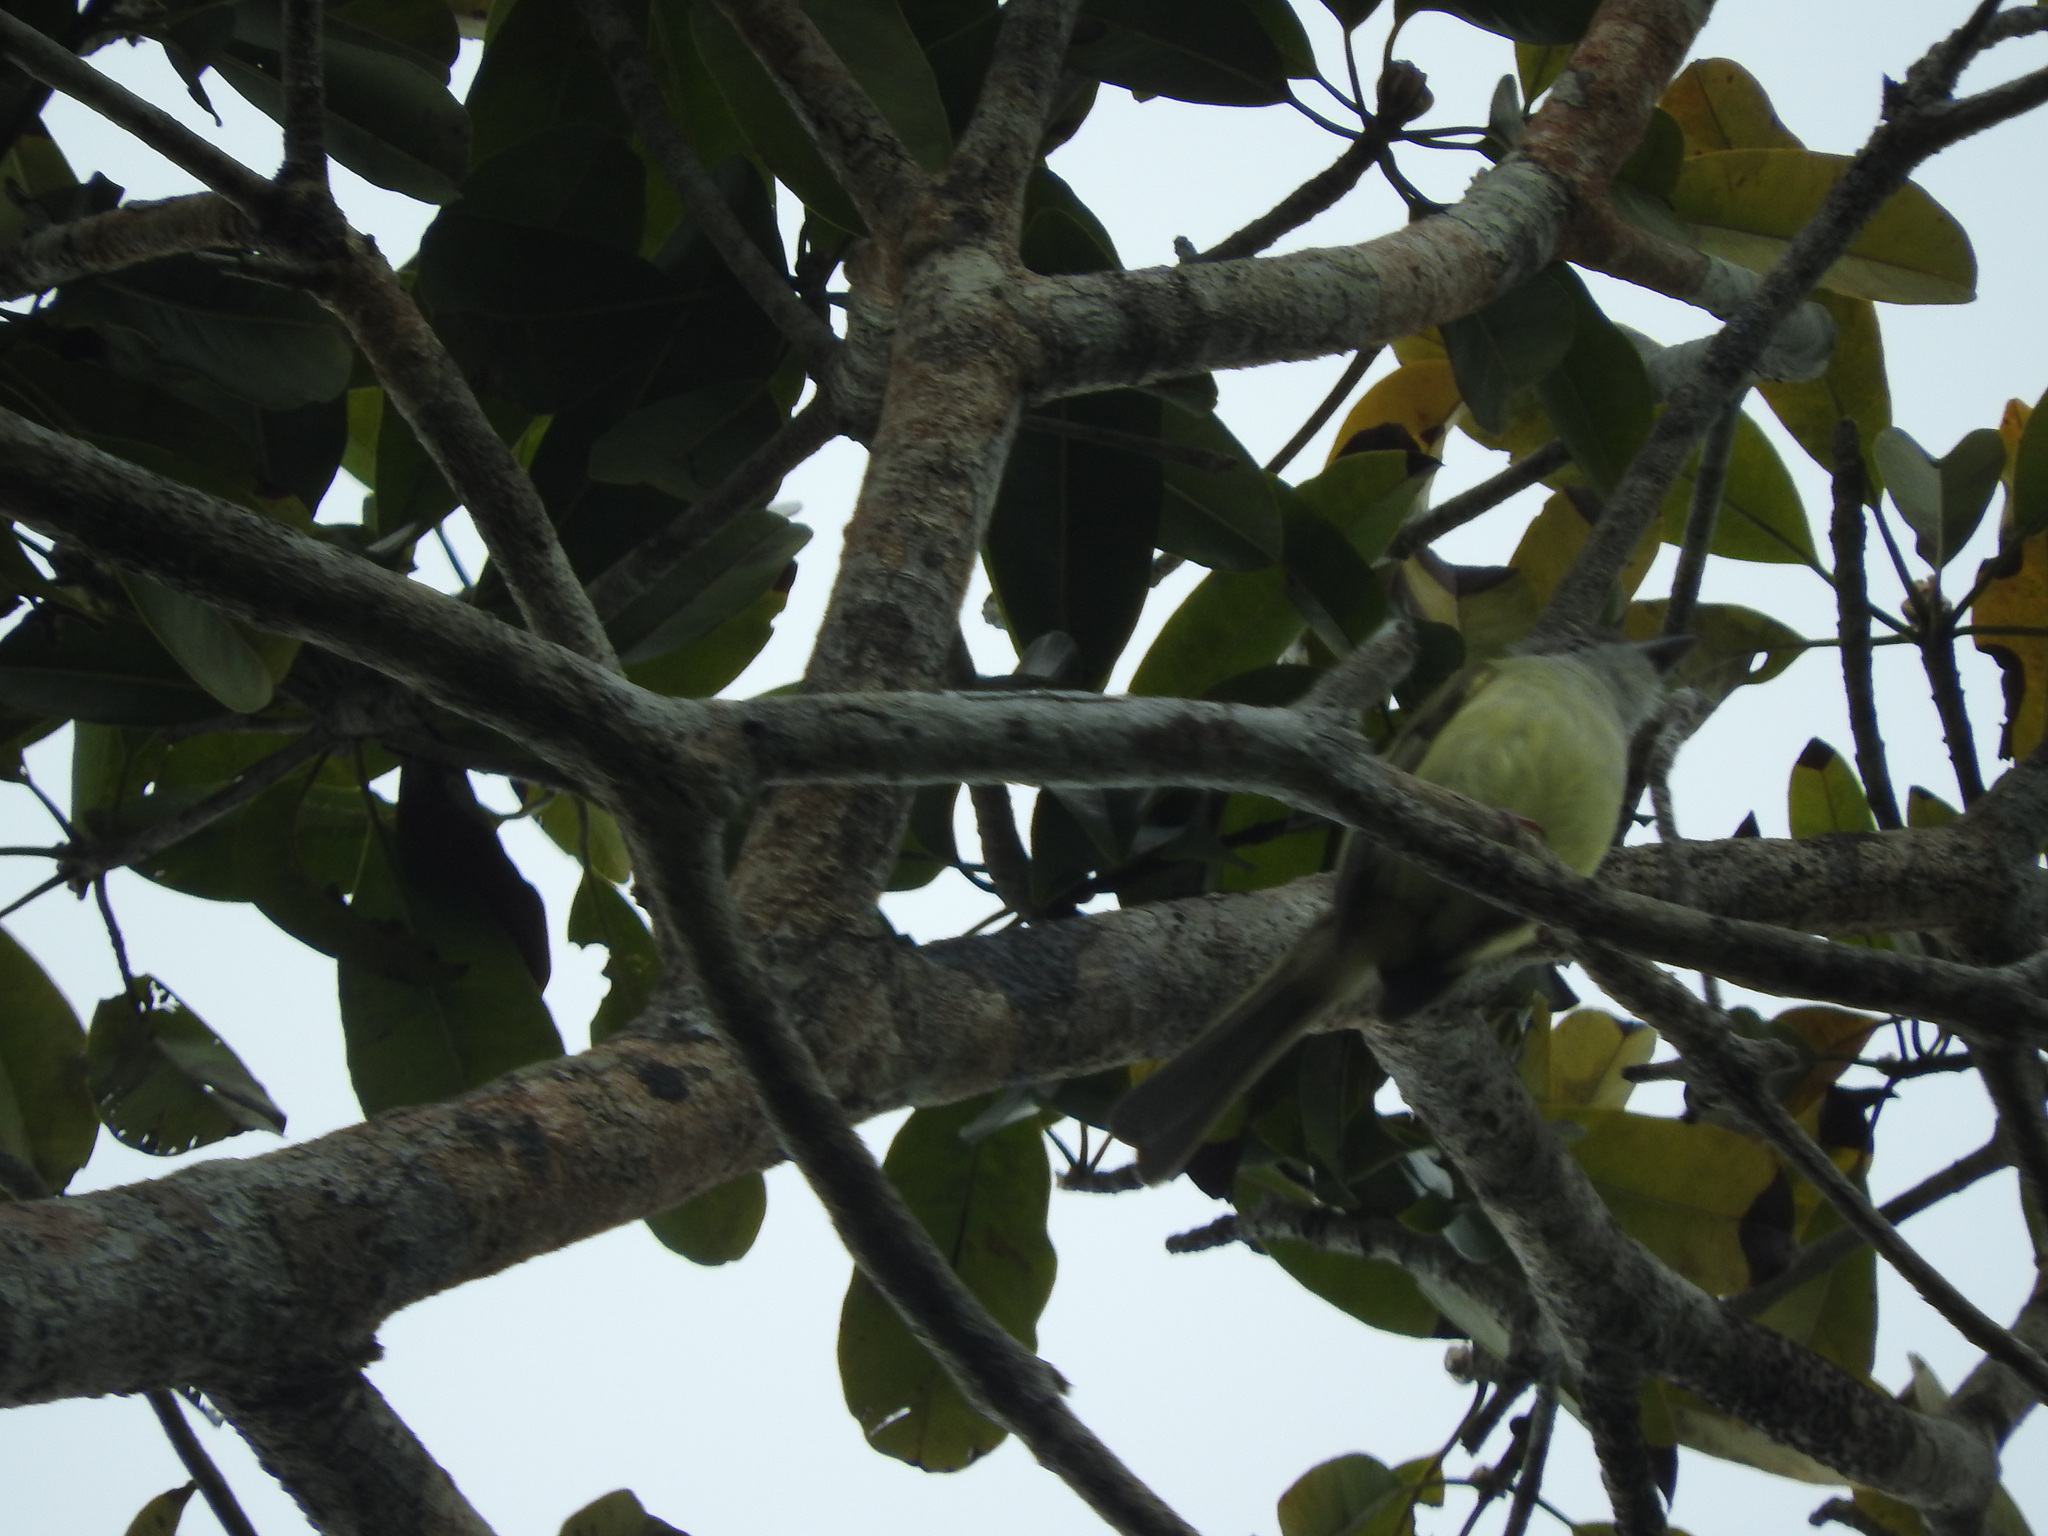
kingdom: Animalia
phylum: Chordata
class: Aves
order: Passeriformes
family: Tyrannidae
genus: Myiarchus
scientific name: Myiarchus yucatanensis
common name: Yucatan flycatcher
